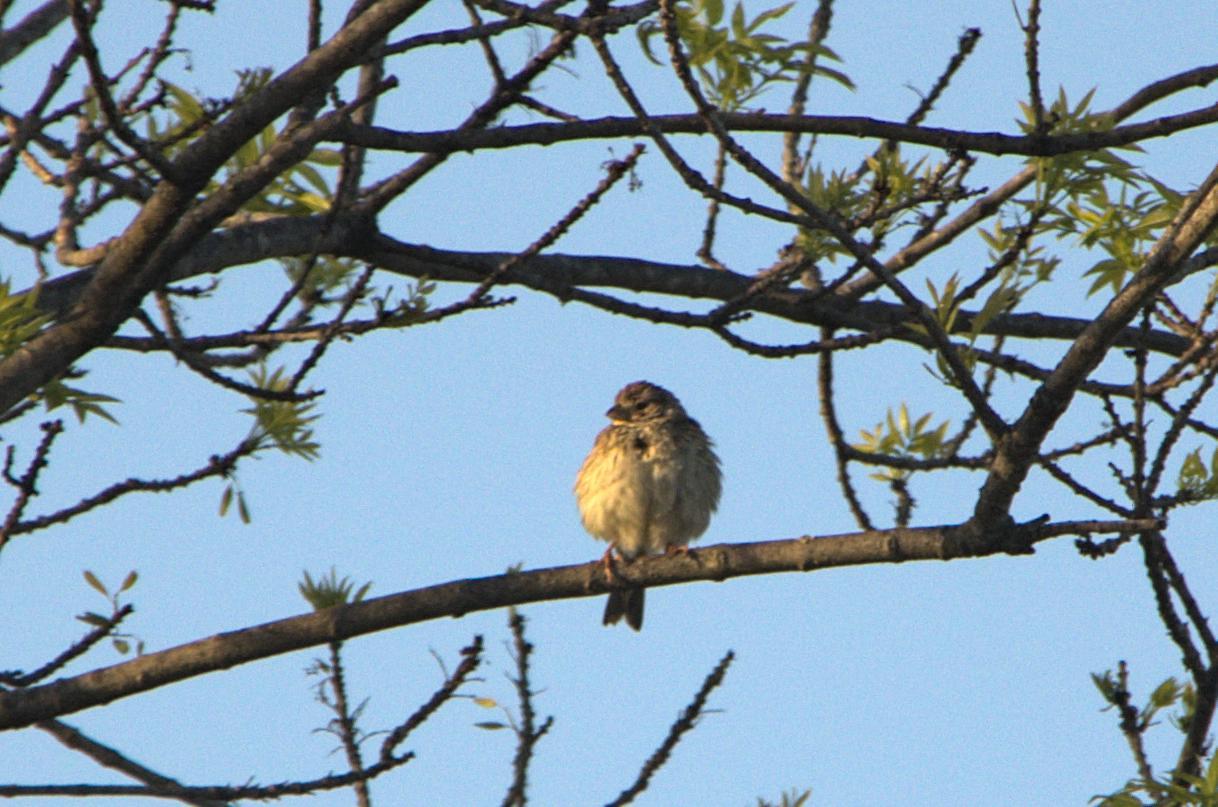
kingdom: Animalia
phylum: Chordata
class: Aves
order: Passeriformes
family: Emberizidae
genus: Emberiza
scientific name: Emberiza calandra
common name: Corn bunting
